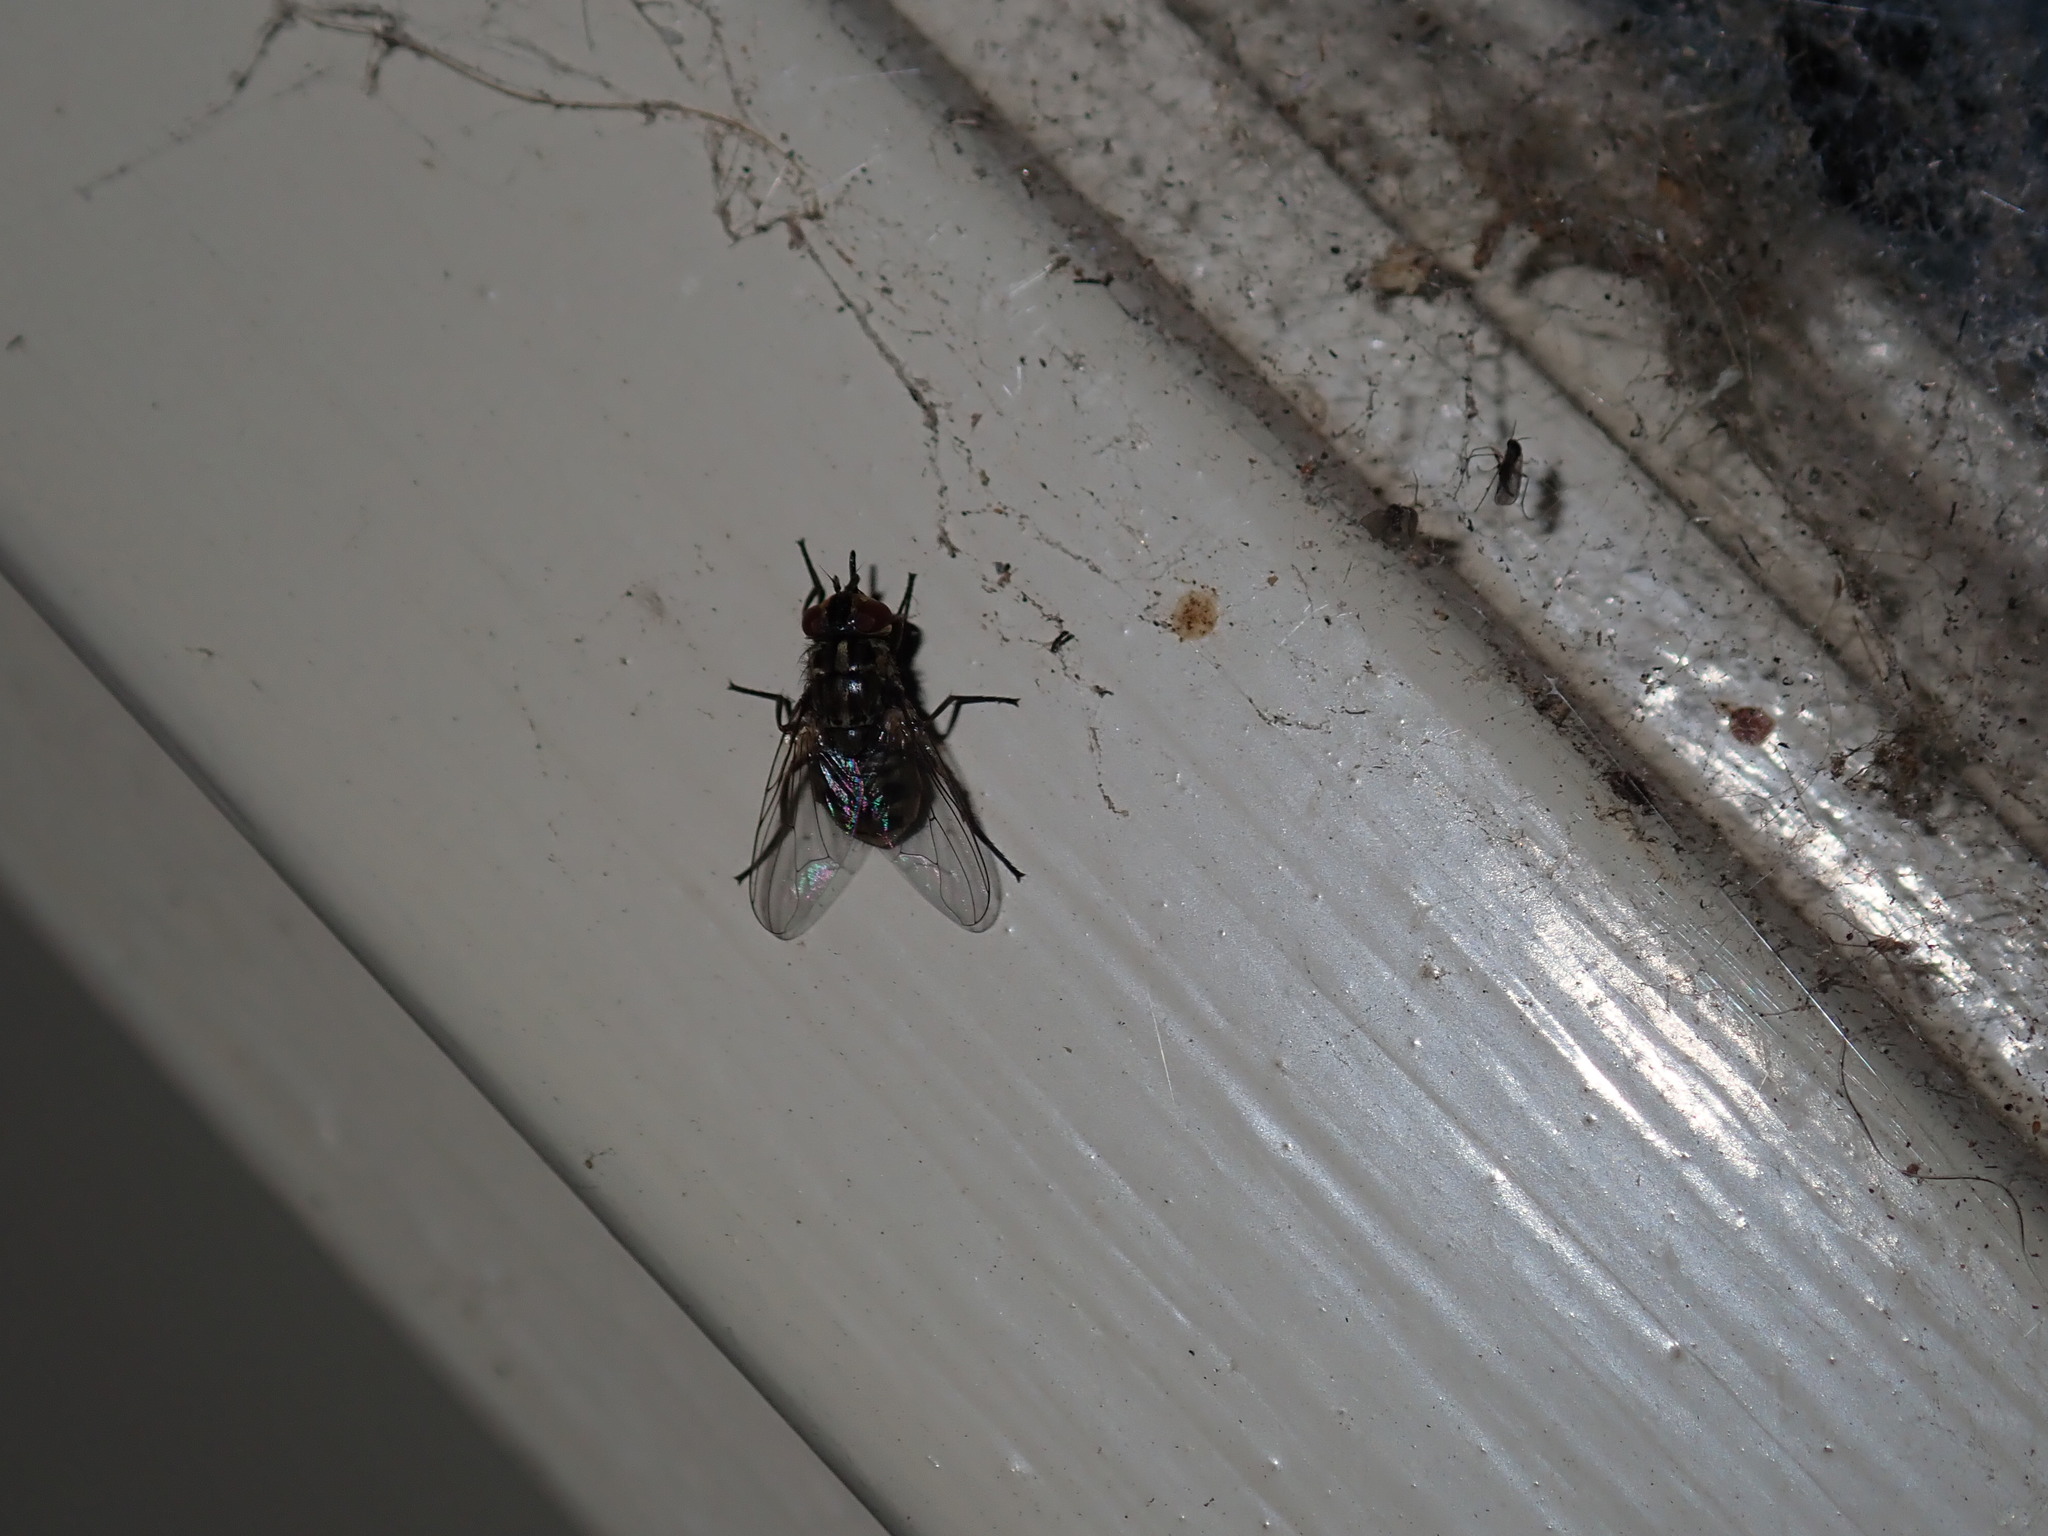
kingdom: Animalia
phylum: Arthropoda
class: Insecta
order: Diptera
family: Muscidae
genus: Stomoxys
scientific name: Stomoxys calcitrans
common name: Stable fly
